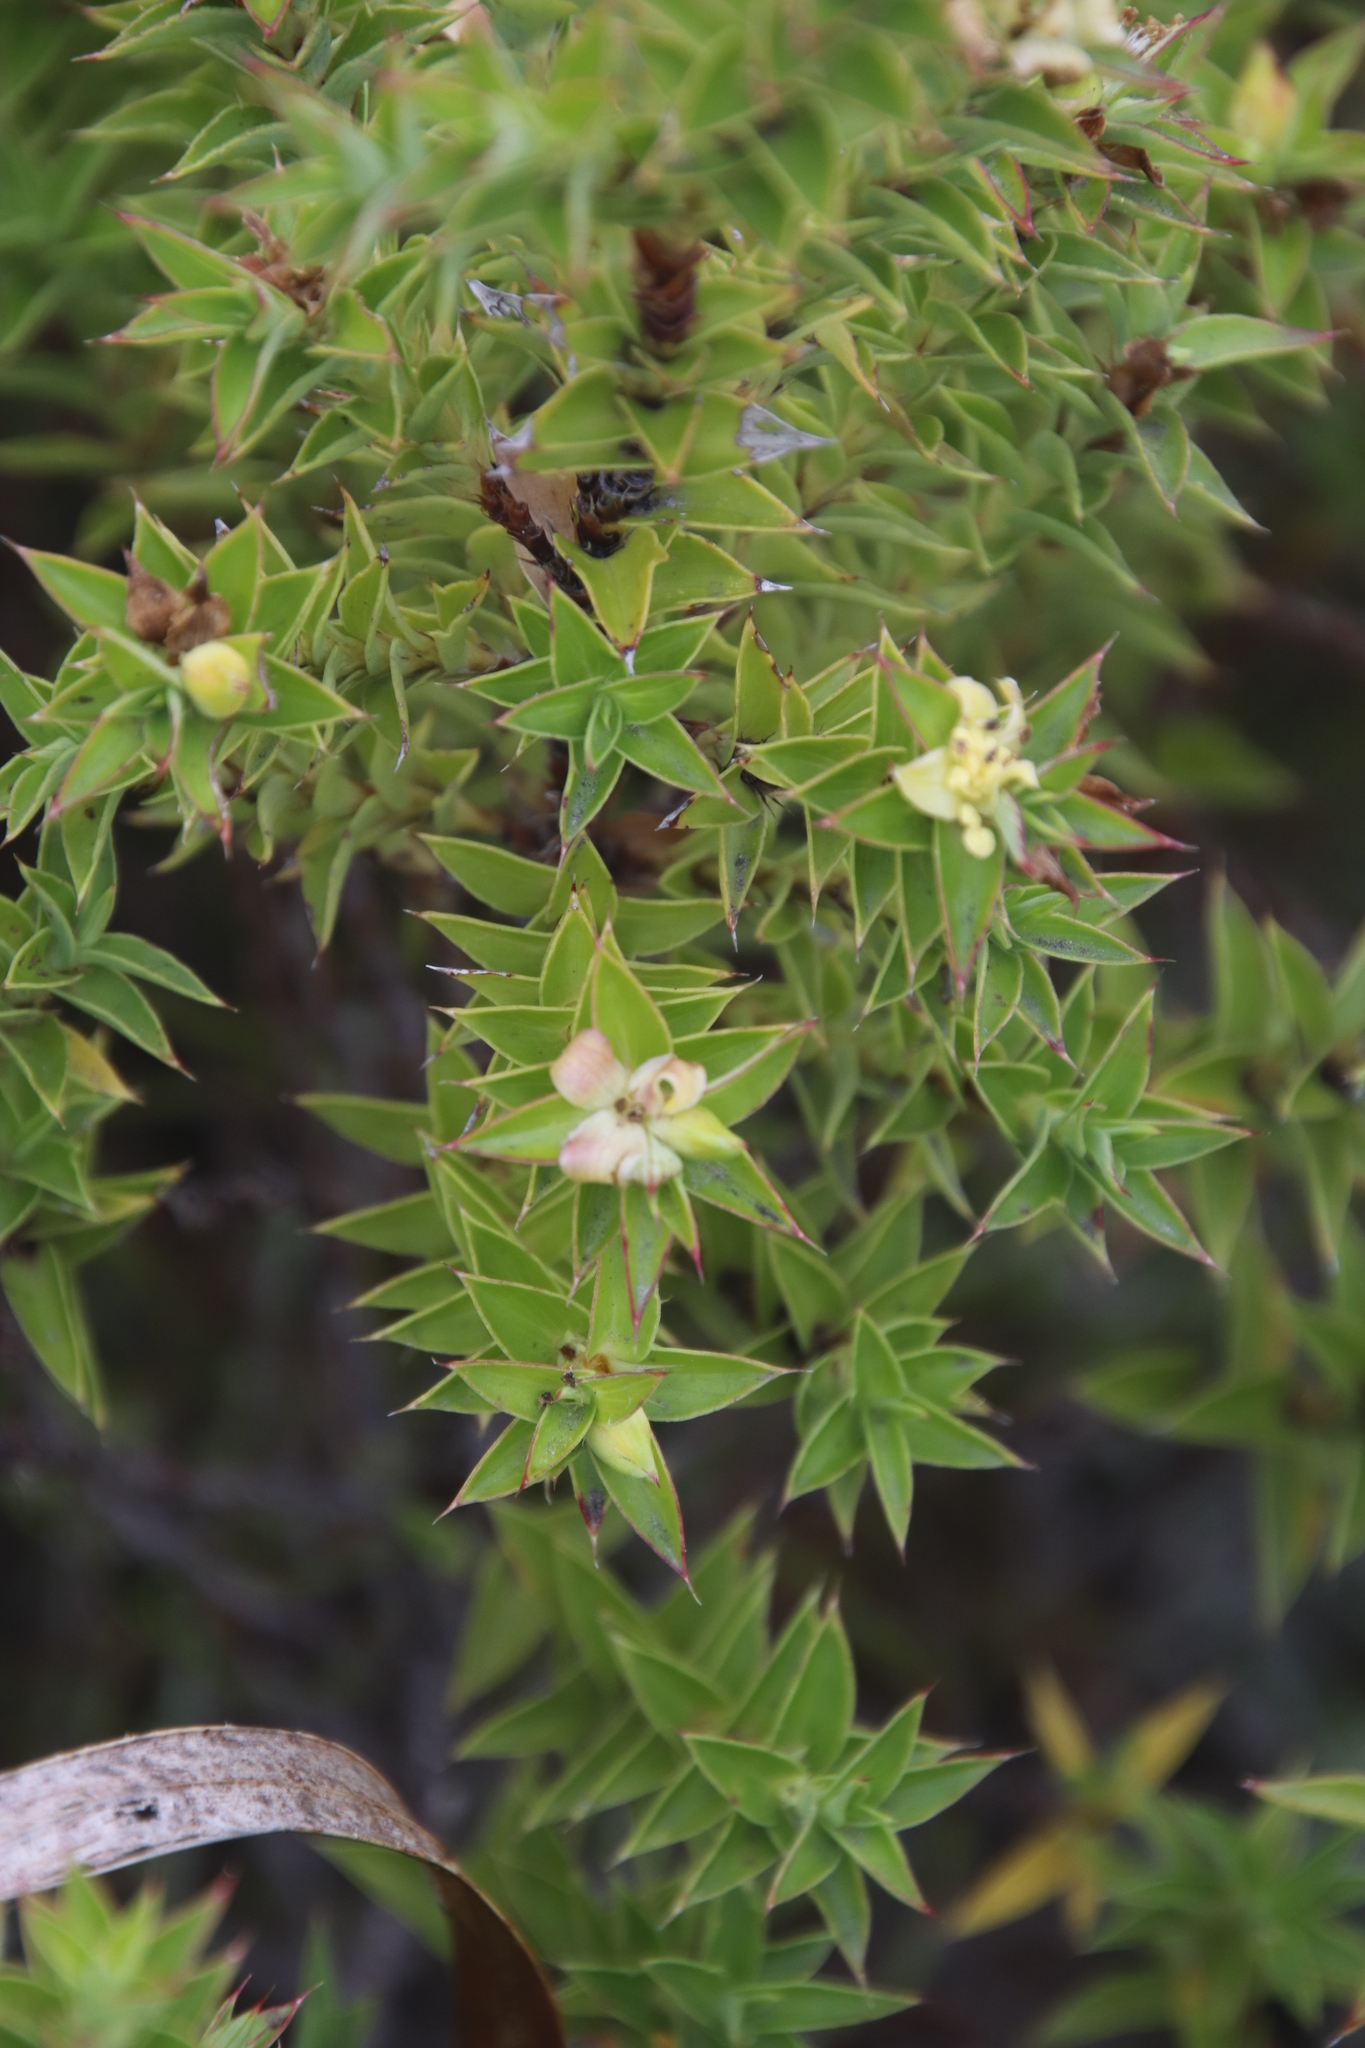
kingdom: Plantae
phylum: Tracheophyta
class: Magnoliopsida
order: Rosales
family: Rosaceae
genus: Cliffortia
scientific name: Cliffortia theodori-friesii
